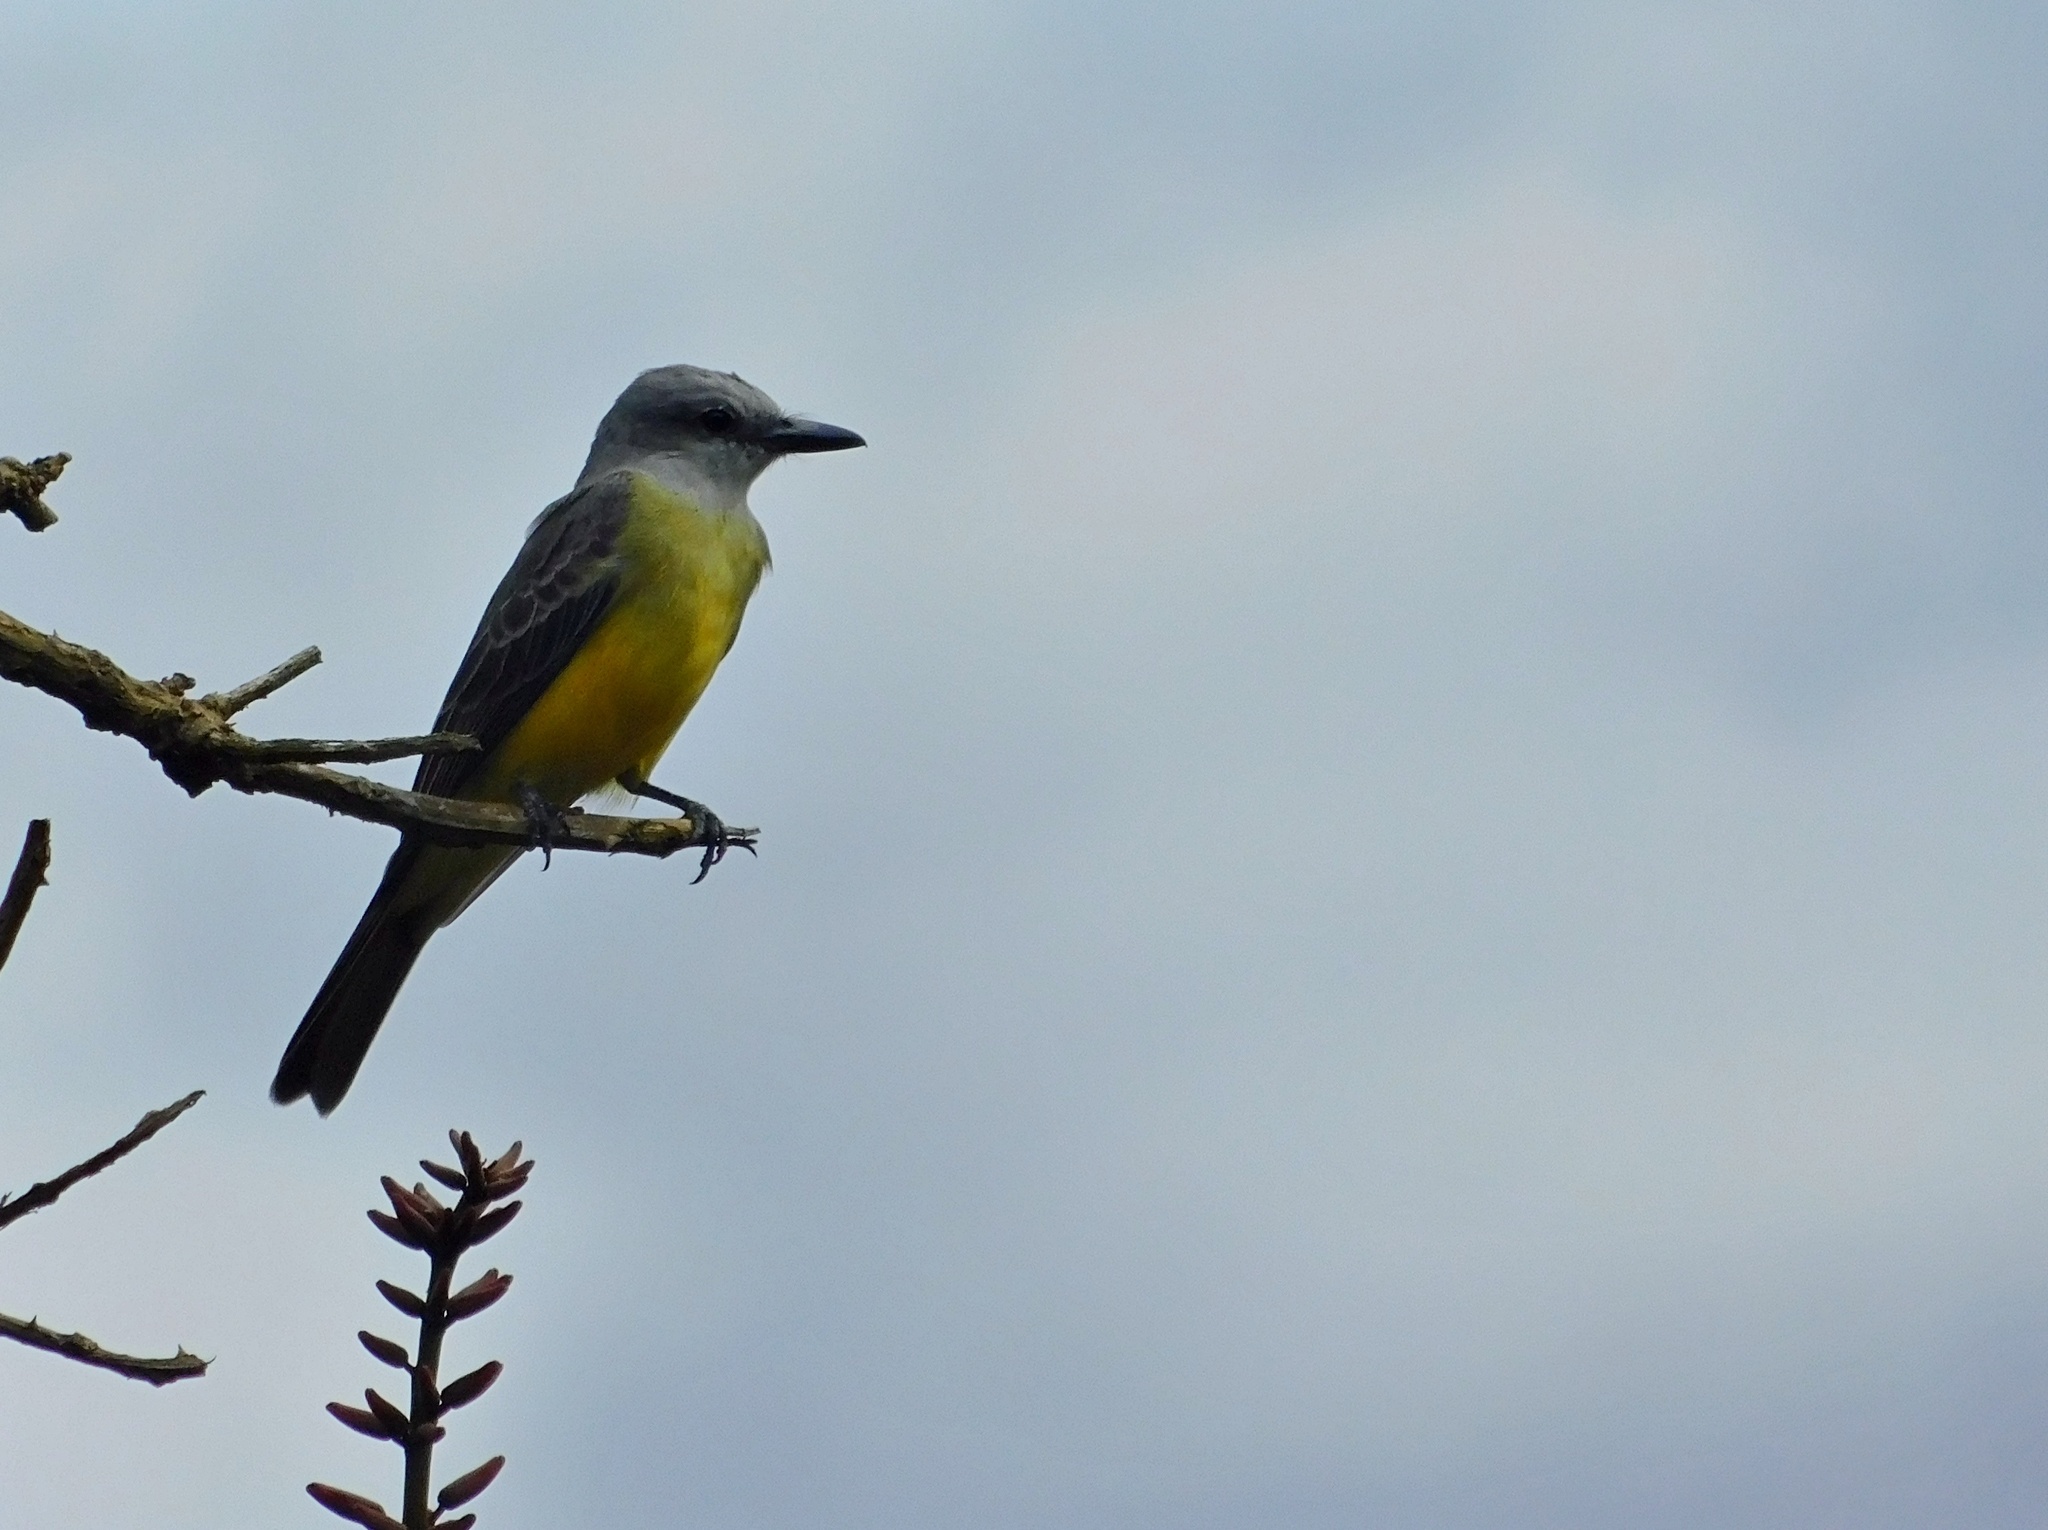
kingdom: Animalia
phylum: Chordata
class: Aves
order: Passeriformes
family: Tyrannidae
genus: Tyrannus
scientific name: Tyrannus melancholicus
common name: Tropical kingbird
